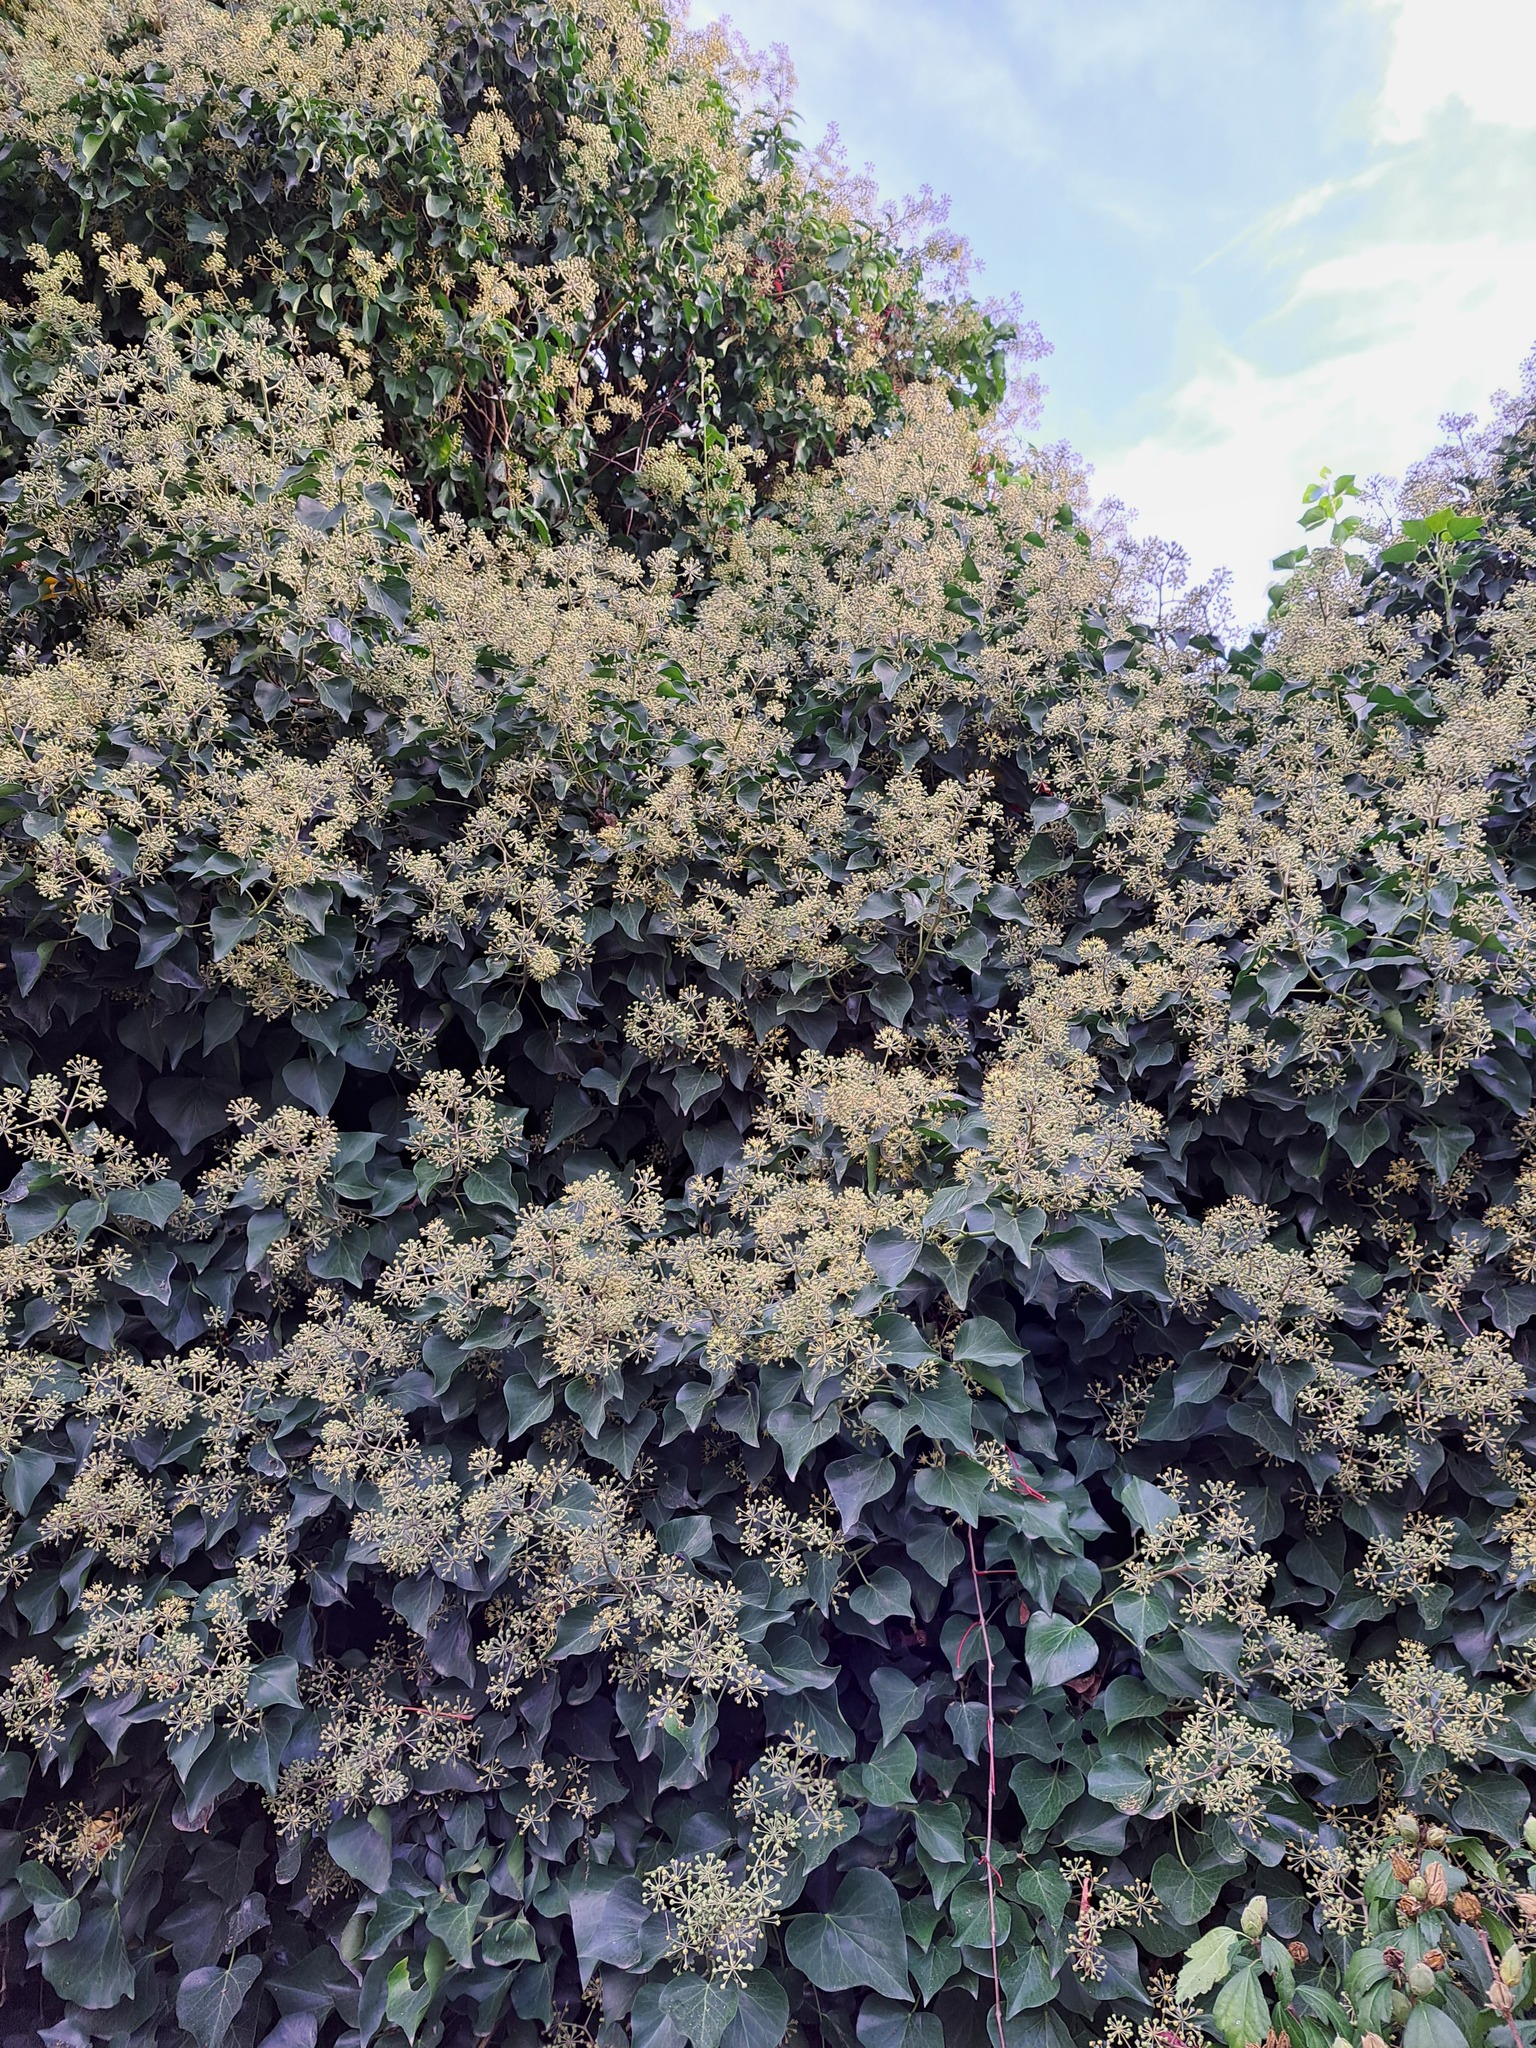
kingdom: Plantae
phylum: Tracheophyta
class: Magnoliopsida
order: Apiales
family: Araliaceae
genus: Hedera
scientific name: Hedera helix
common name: Ivy
